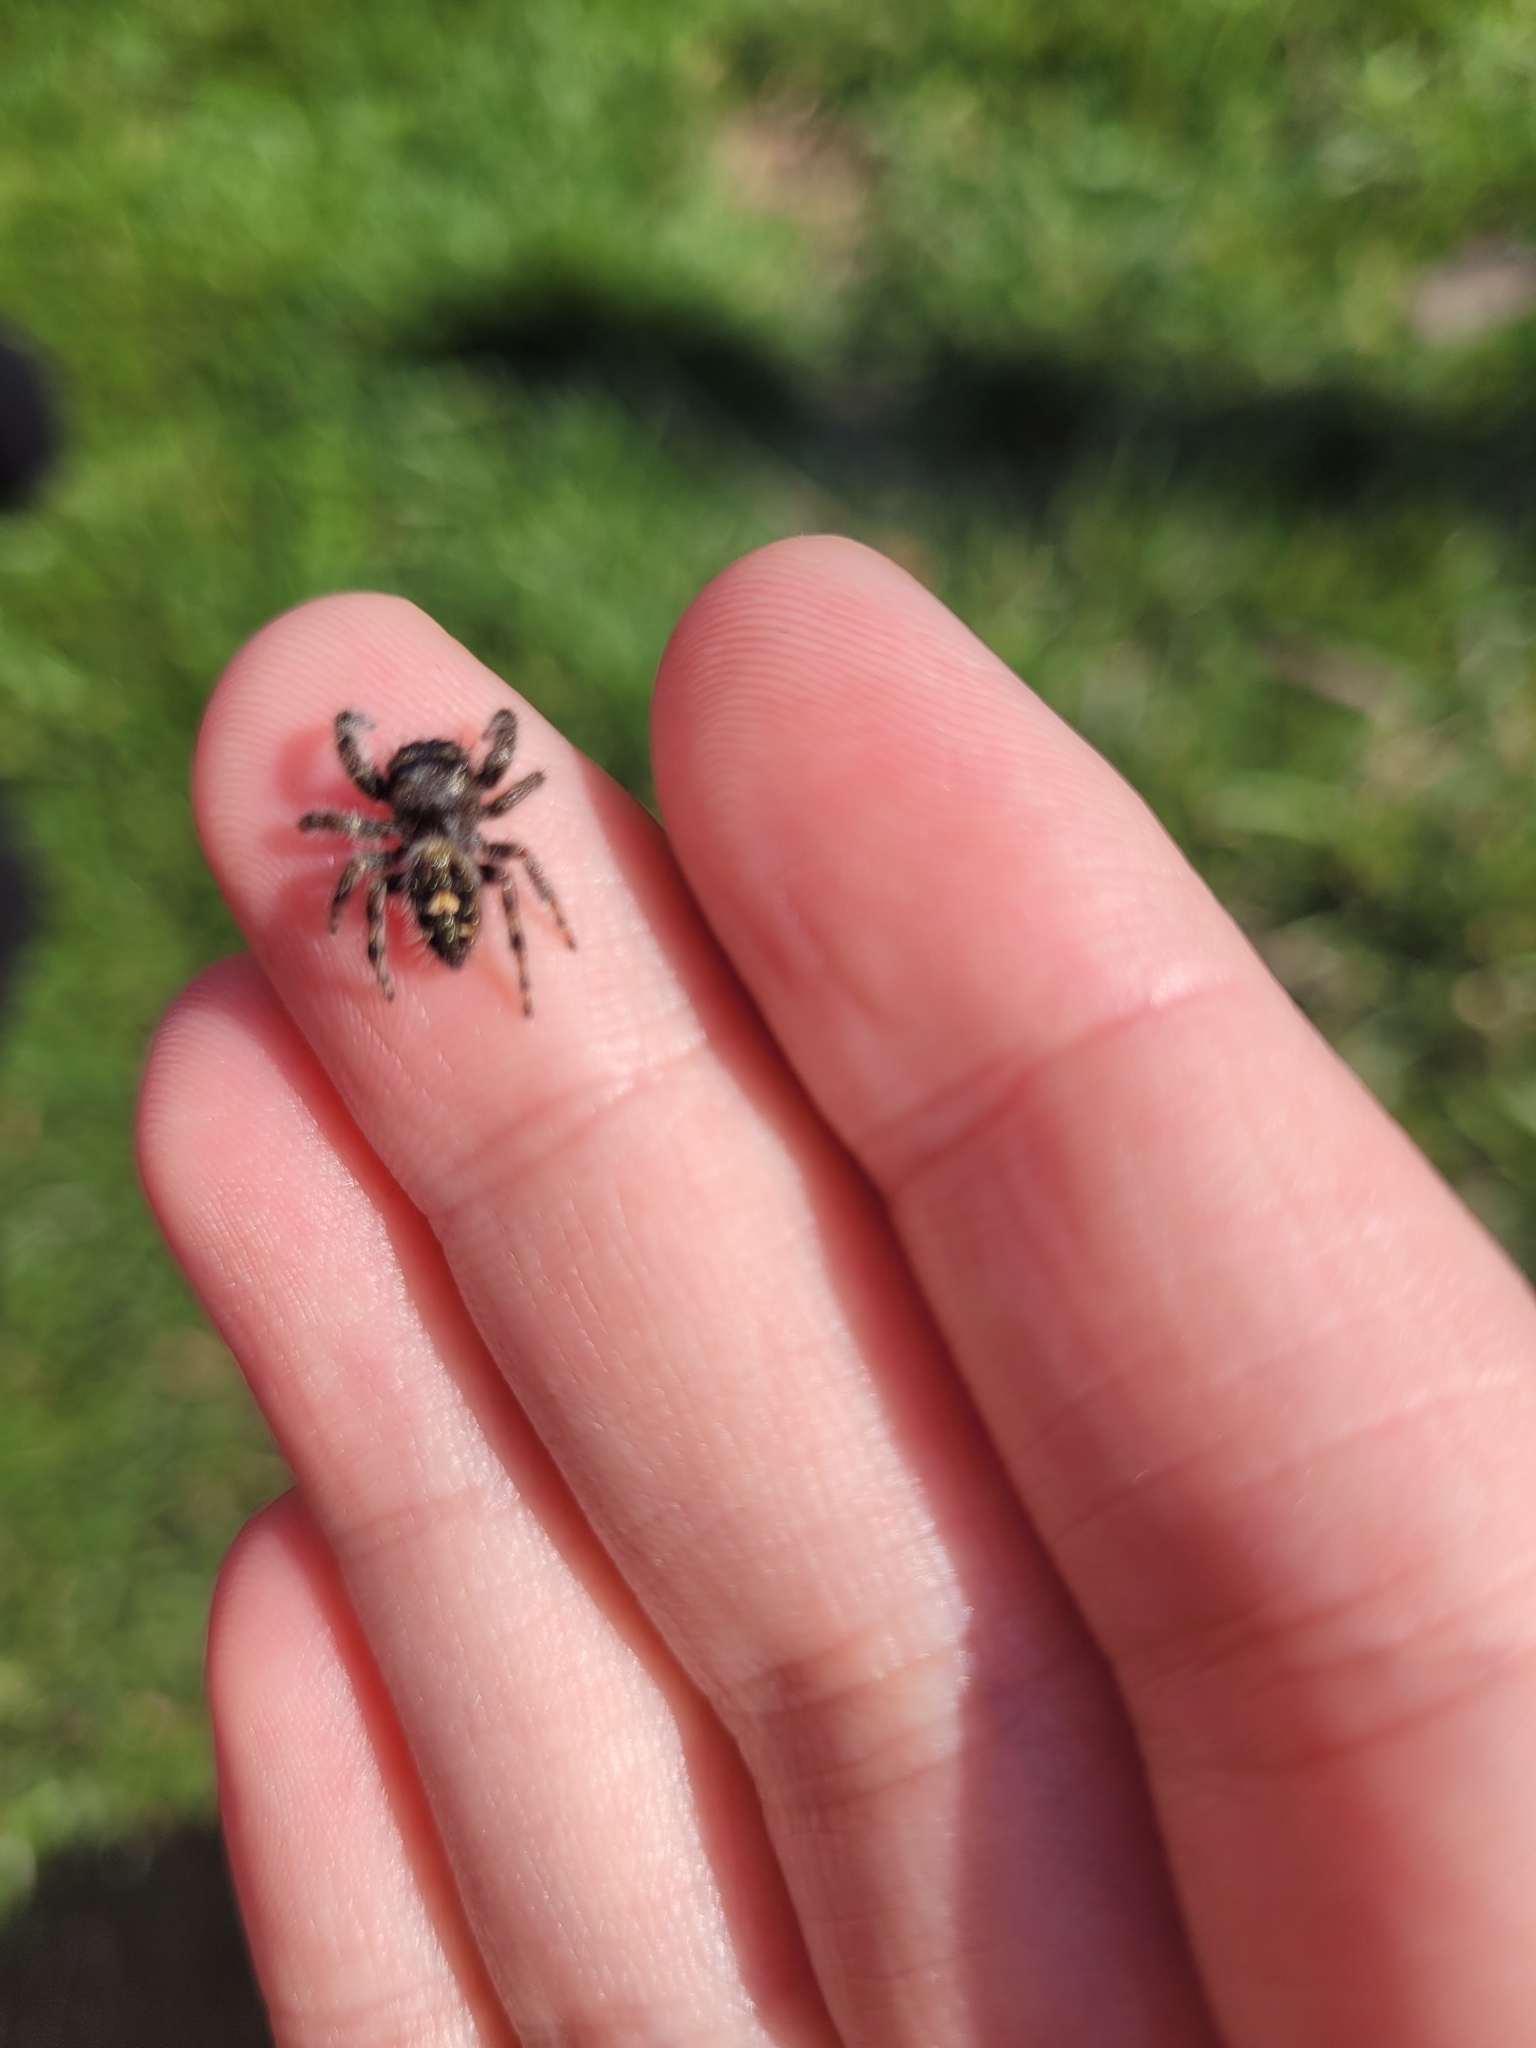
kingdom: Animalia
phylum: Arthropoda
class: Arachnida
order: Araneae
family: Salticidae
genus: Phidippus
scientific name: Phidippus audax
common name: Bold jumper
